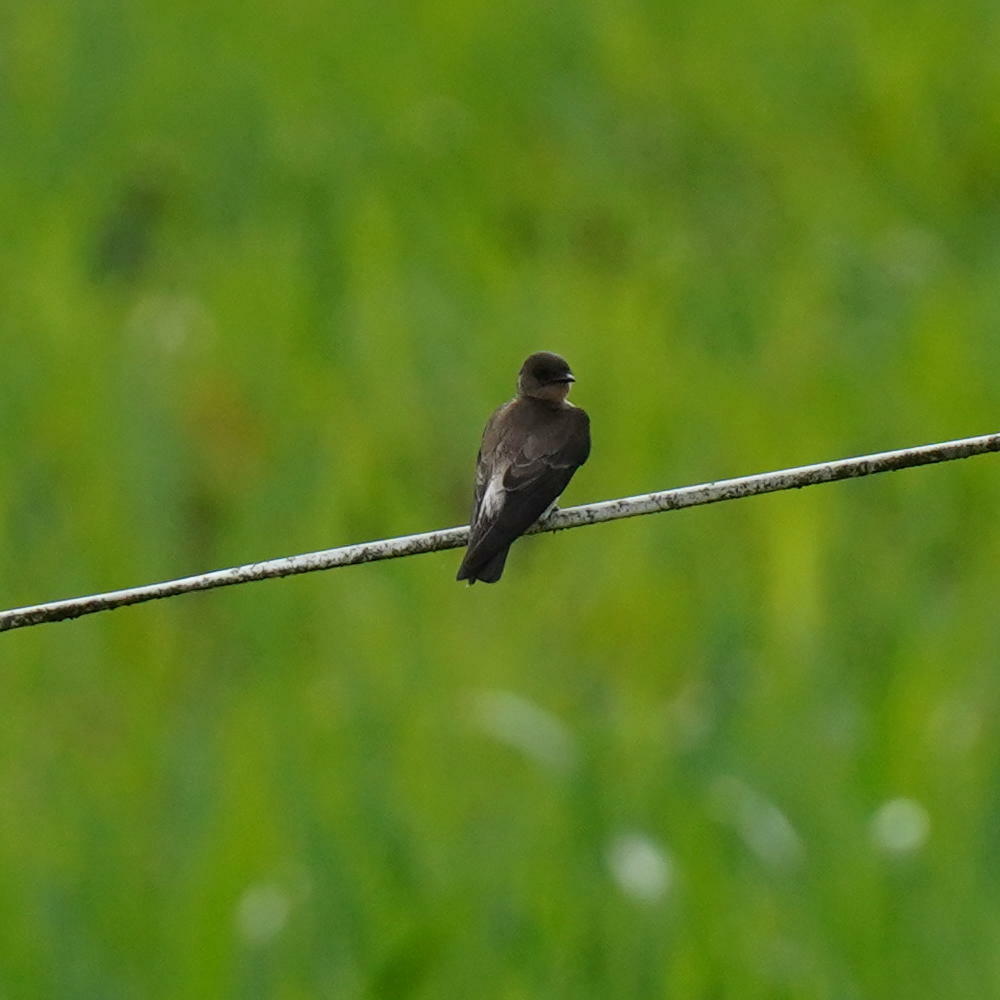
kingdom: Animalia
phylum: Chordata
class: Aves
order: Passeriformes
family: Hirundinidae
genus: Stelgidopteryx
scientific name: Stelgidopteryx ruficollis
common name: Southern rough-winged swallow
